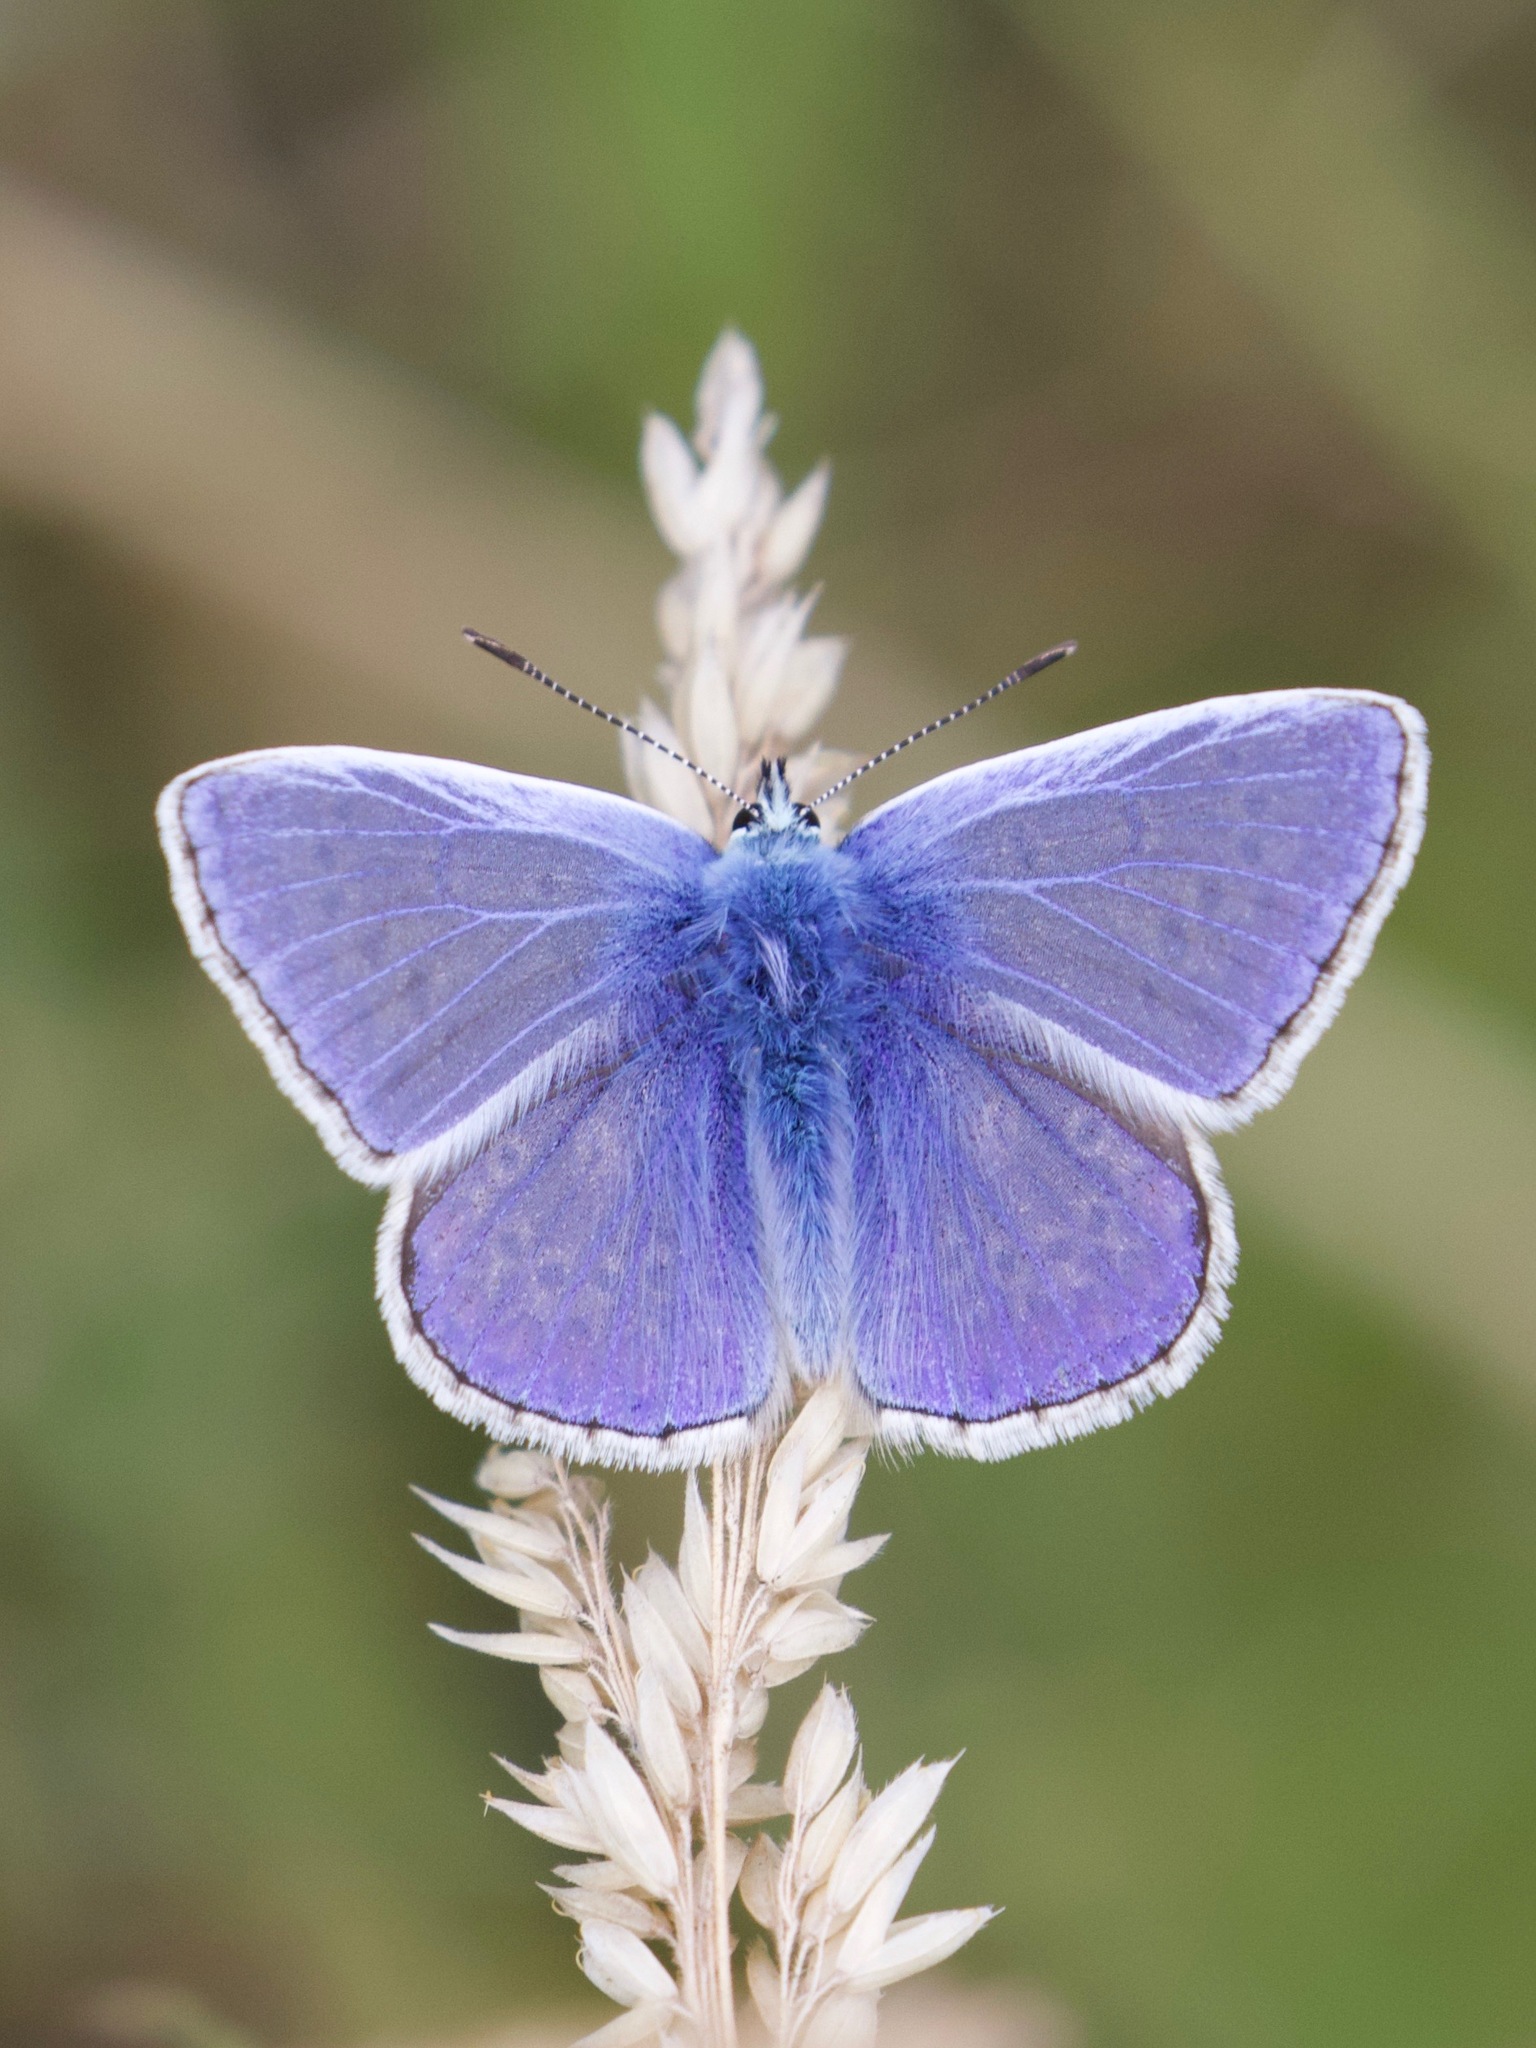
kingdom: Animalia
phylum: Arthropoda
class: Insecta
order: Lepidoptera
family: Lycaenidae
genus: Polyommatus
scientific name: Polyommatus icarus
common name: Common blue
